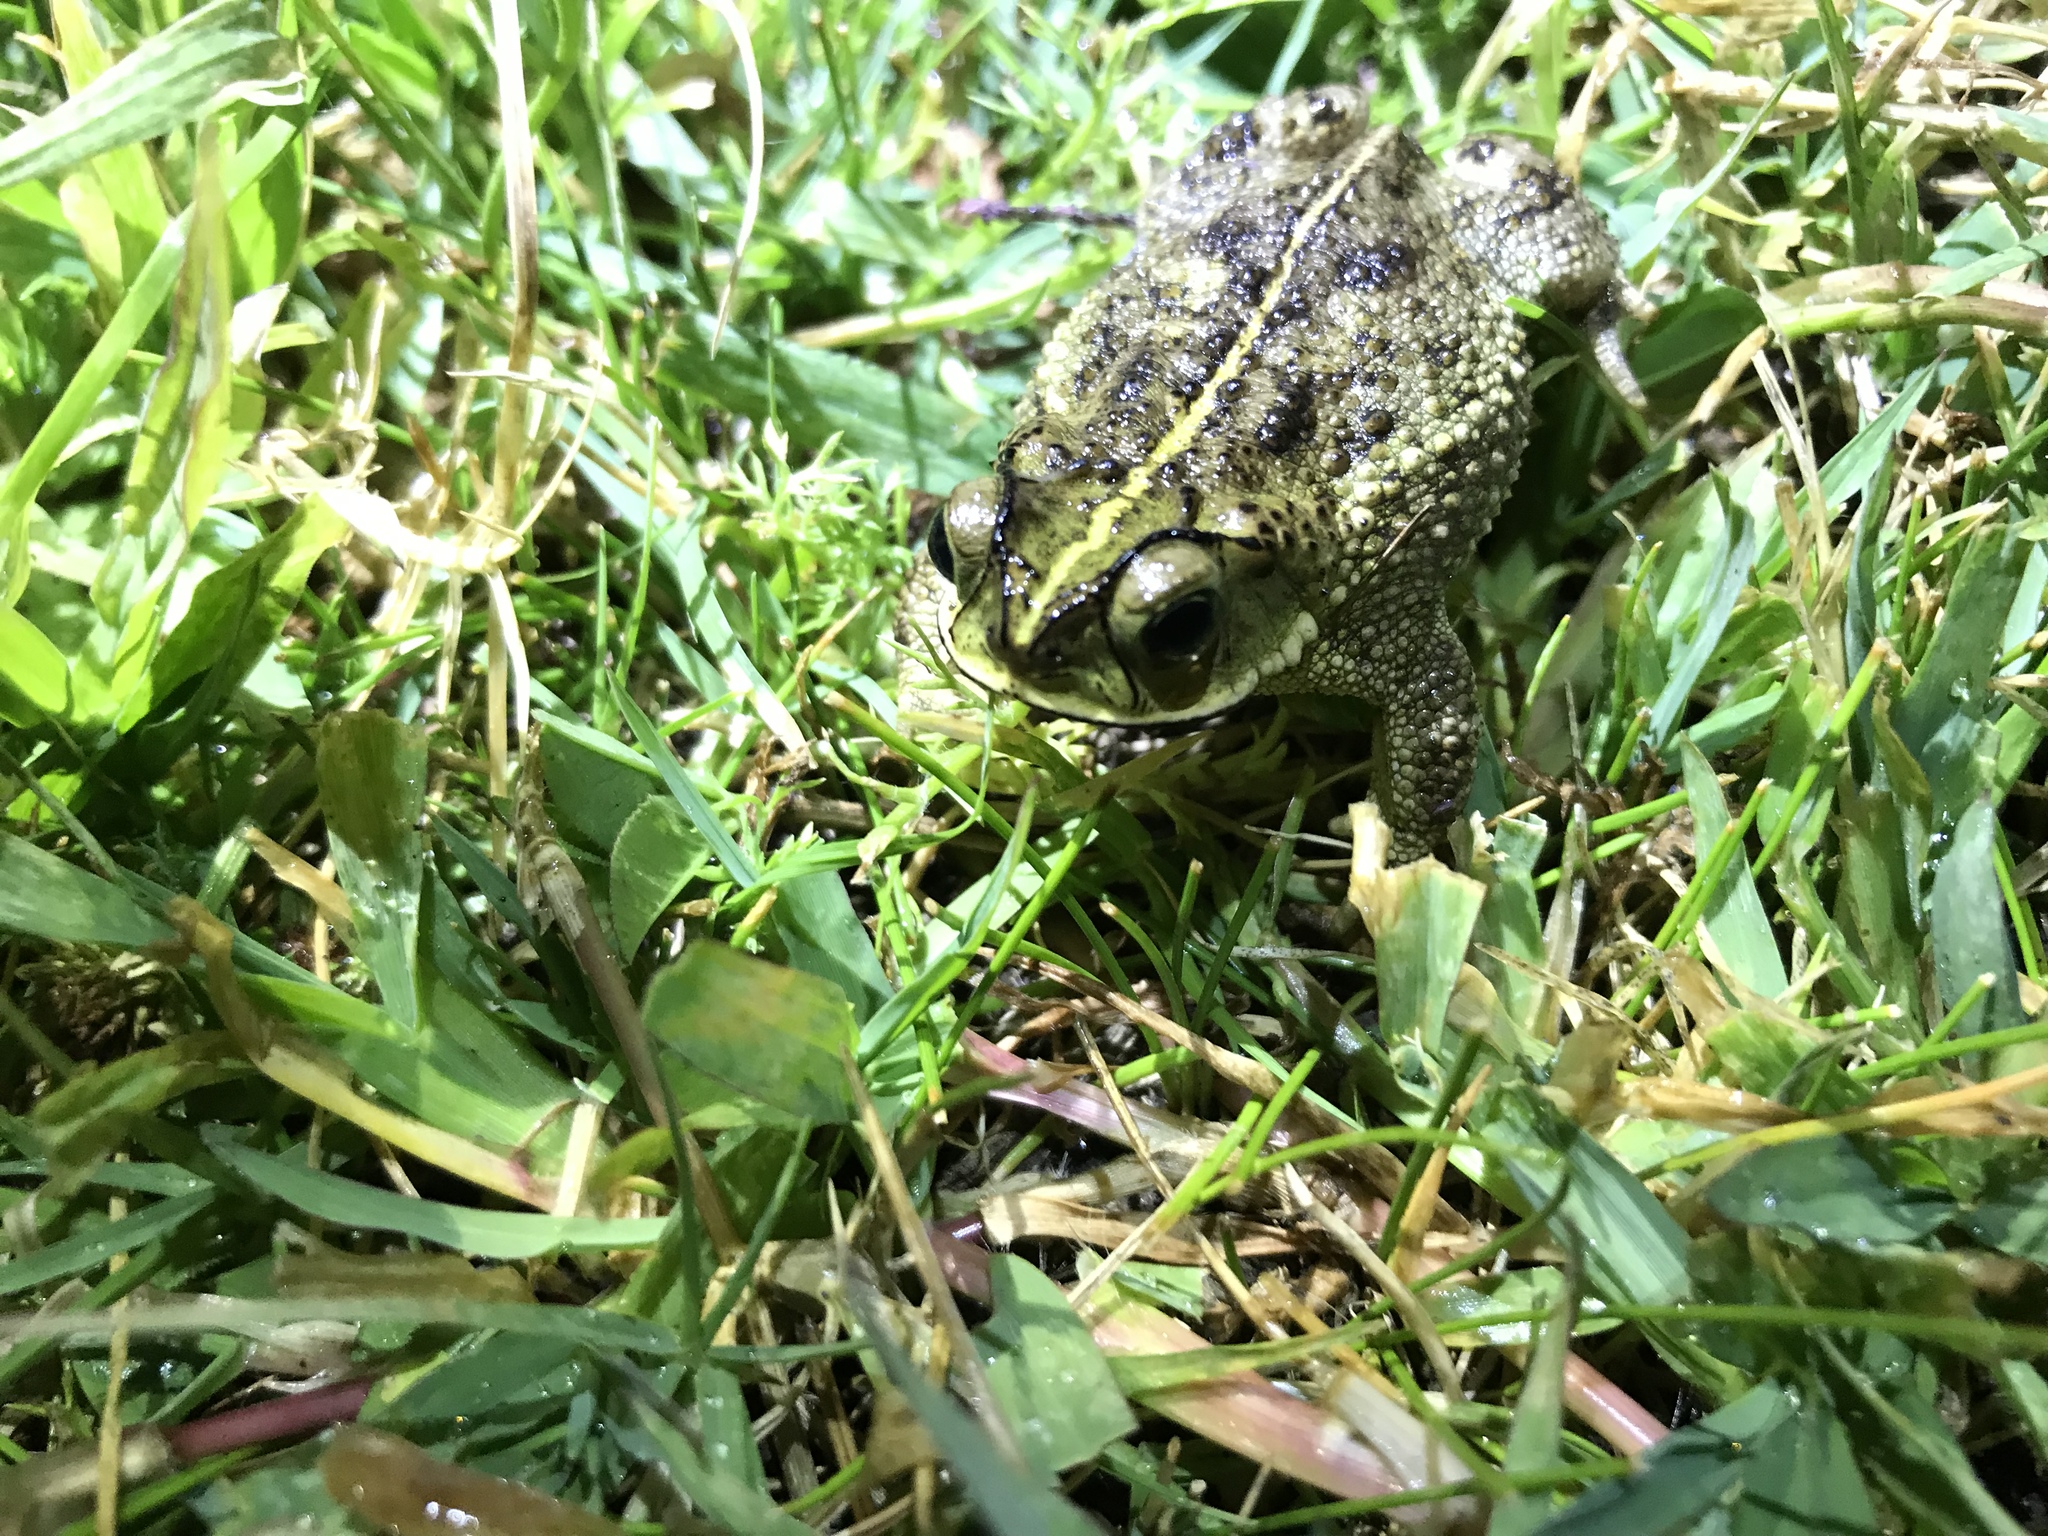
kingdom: Animalia
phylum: Chordata
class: Amphibia
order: Anura
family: Bufonidae
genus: Rhinella
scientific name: Rhinella dorbignyi
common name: D´orbigny’s toad
